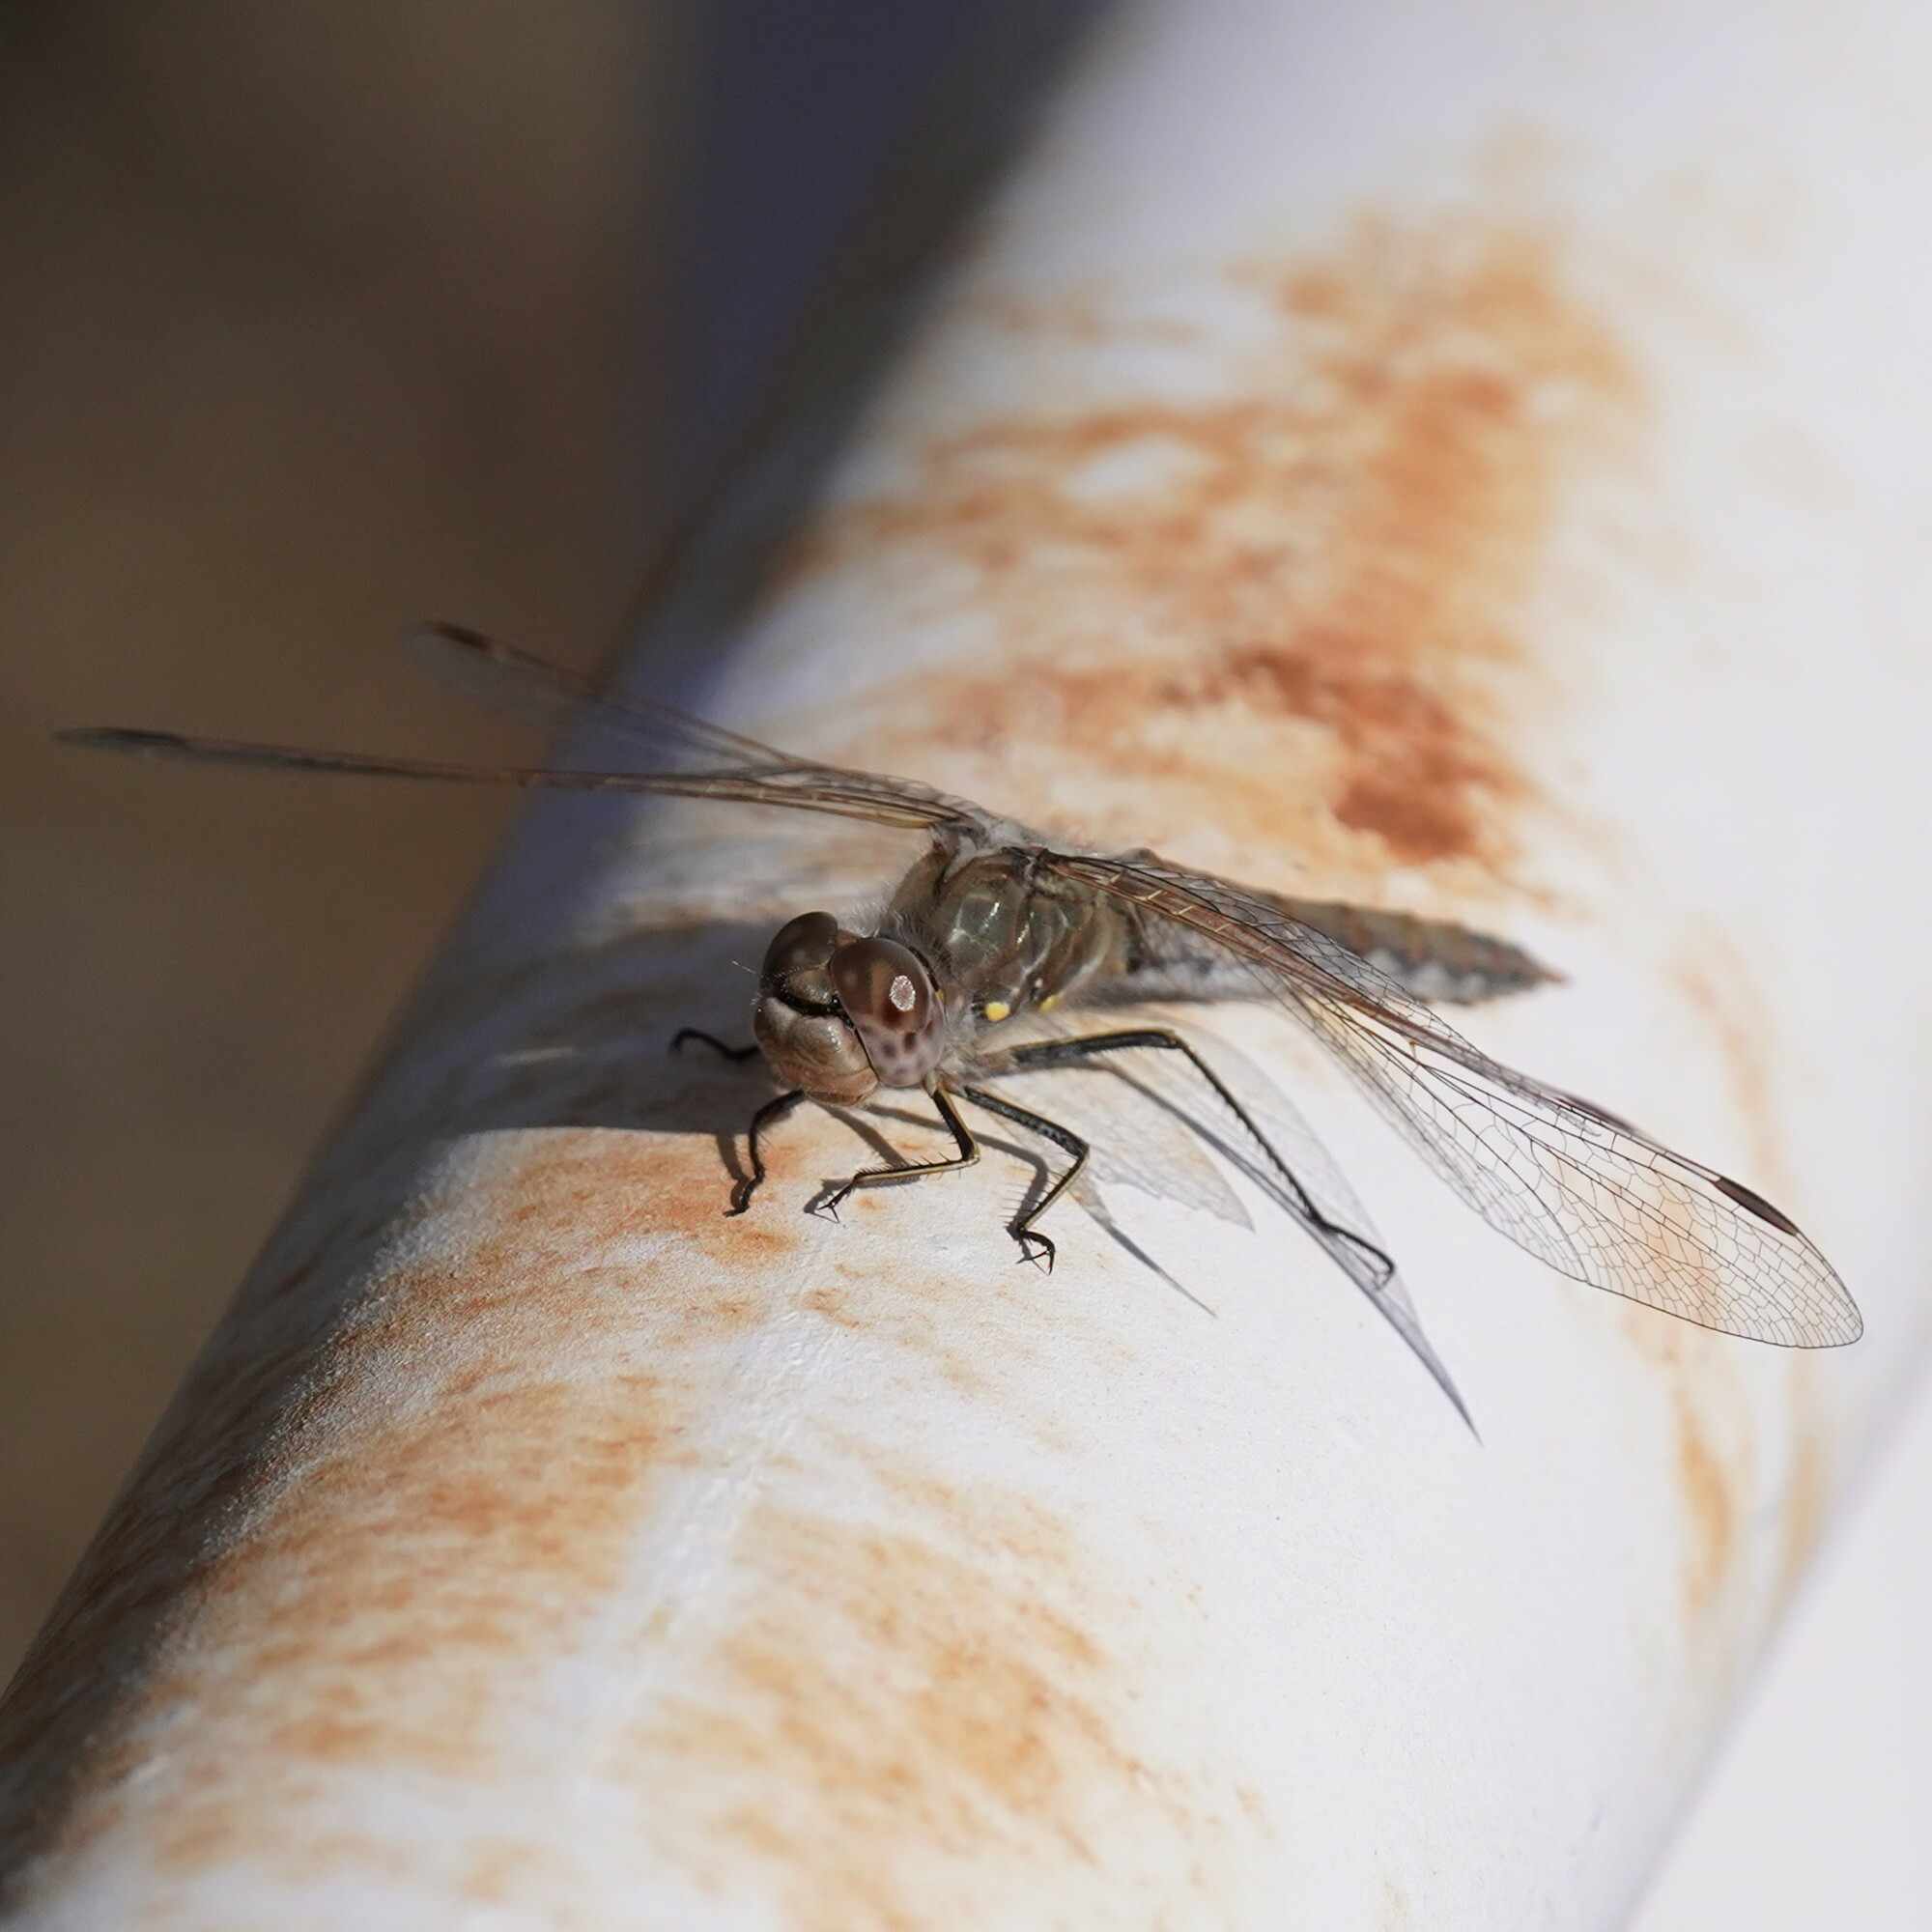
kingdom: Animalia
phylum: Arthropoda
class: Insecta
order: Odonata
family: Libellulidae
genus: Sympetrum
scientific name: Sympetrum corruptum
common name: Variegated meadowhawk
